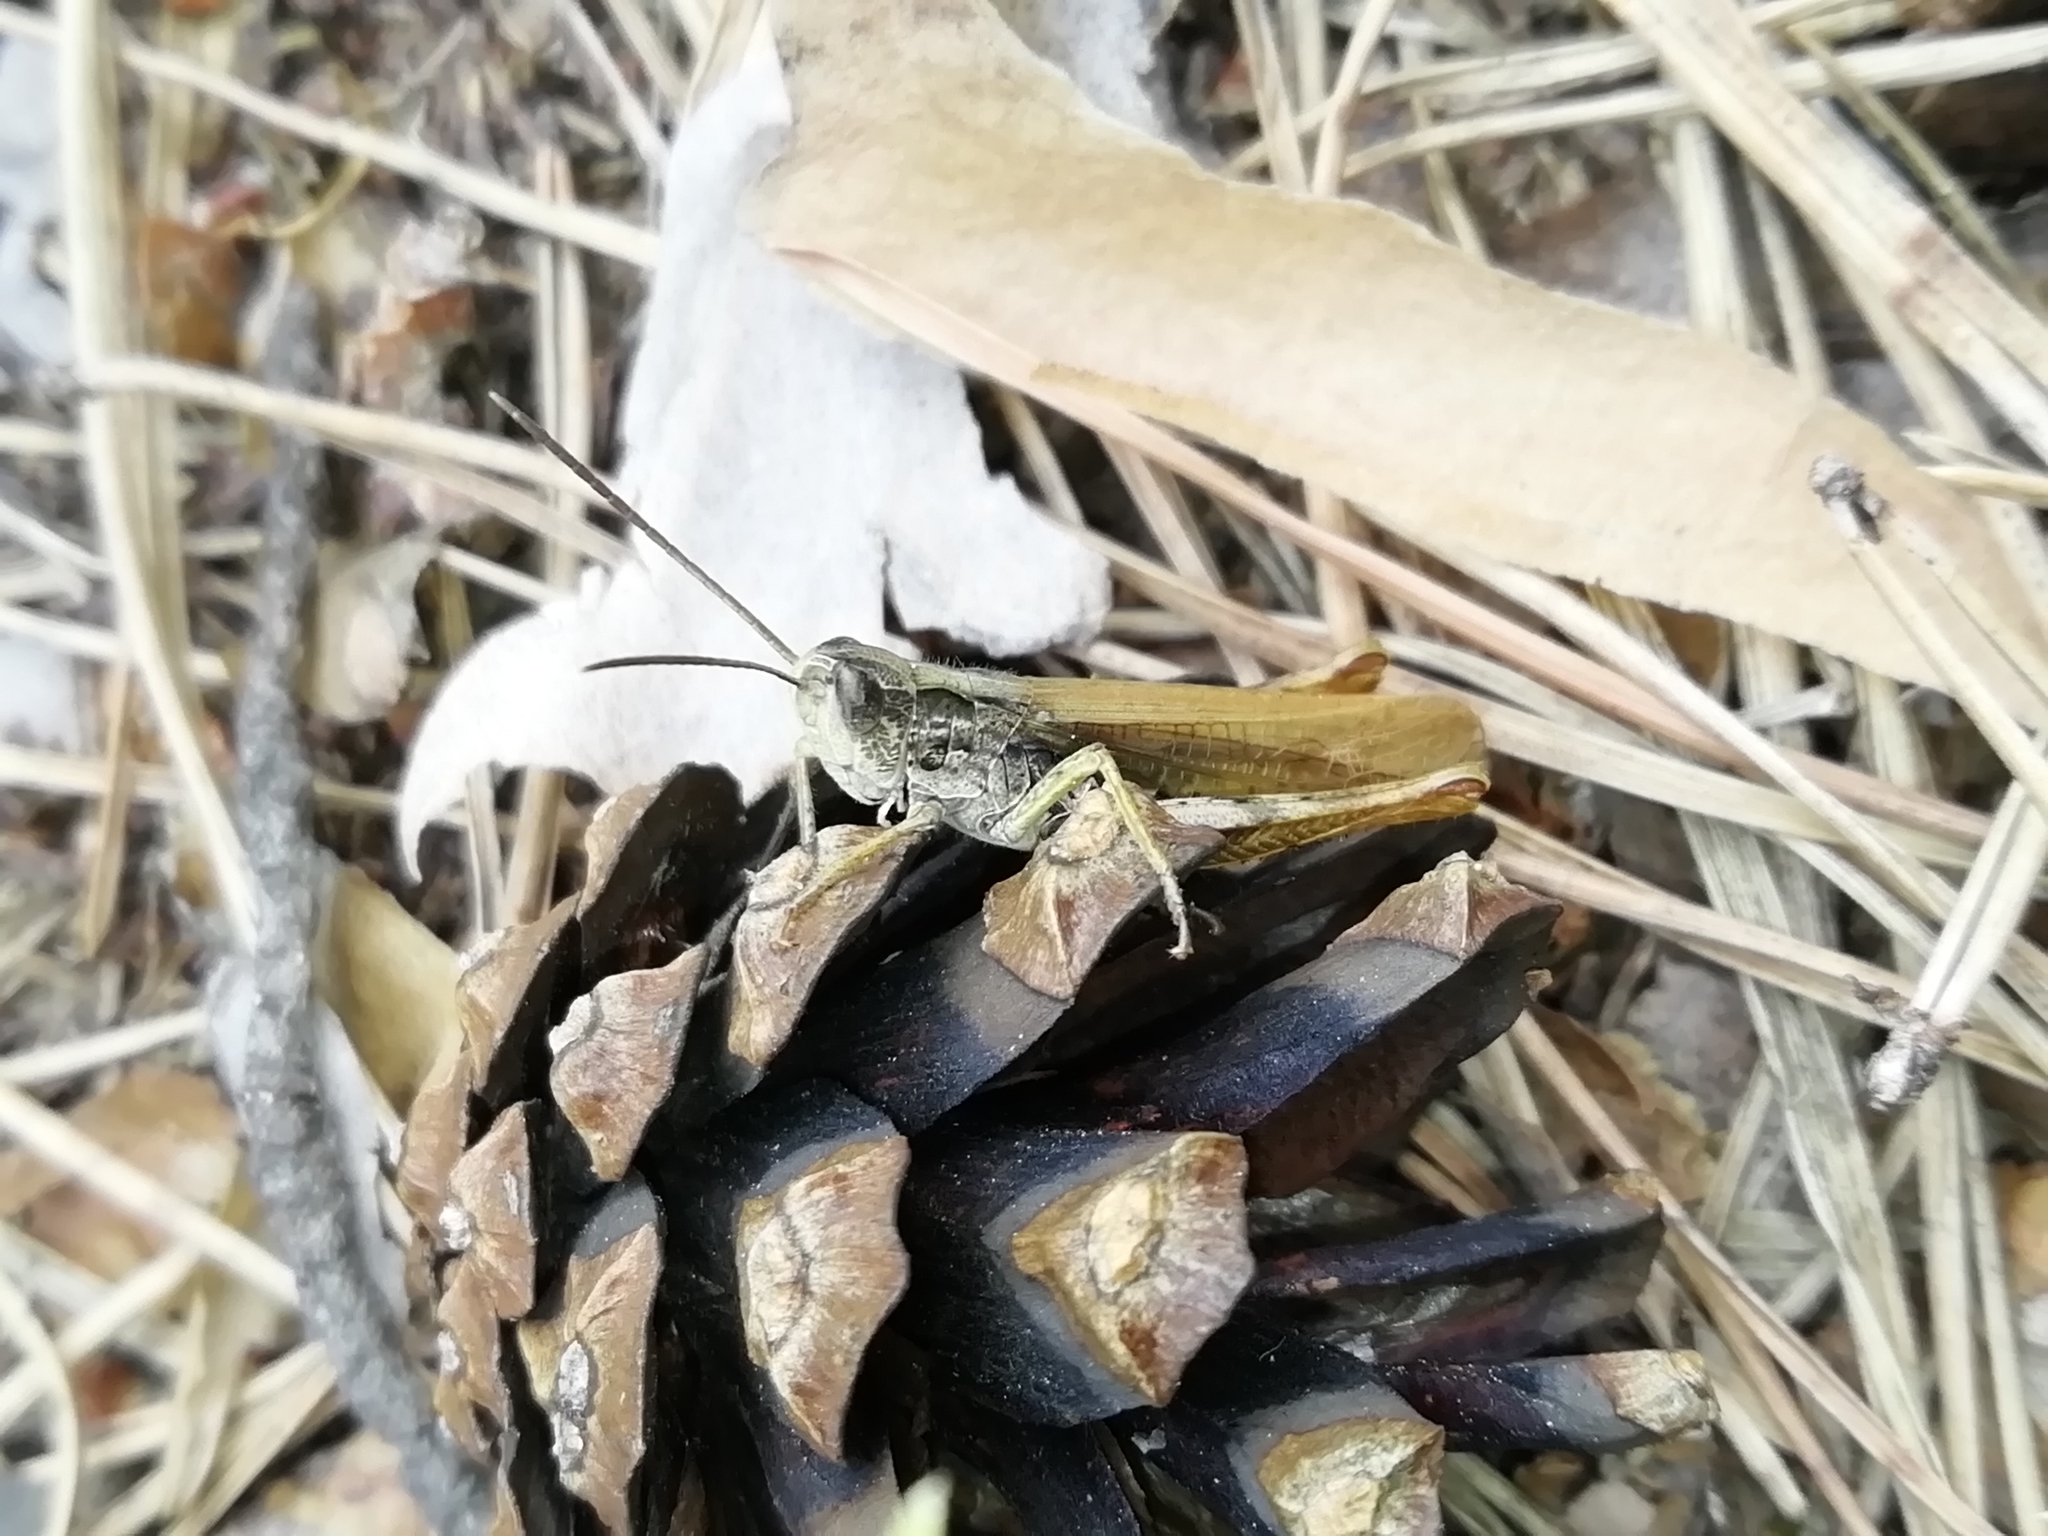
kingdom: Animalia
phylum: Arthropoda
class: Insecta
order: Orthoptera
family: Acrididae
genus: Chorthippus
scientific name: Chorthippus apricarius
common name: Upland field grasshopper
